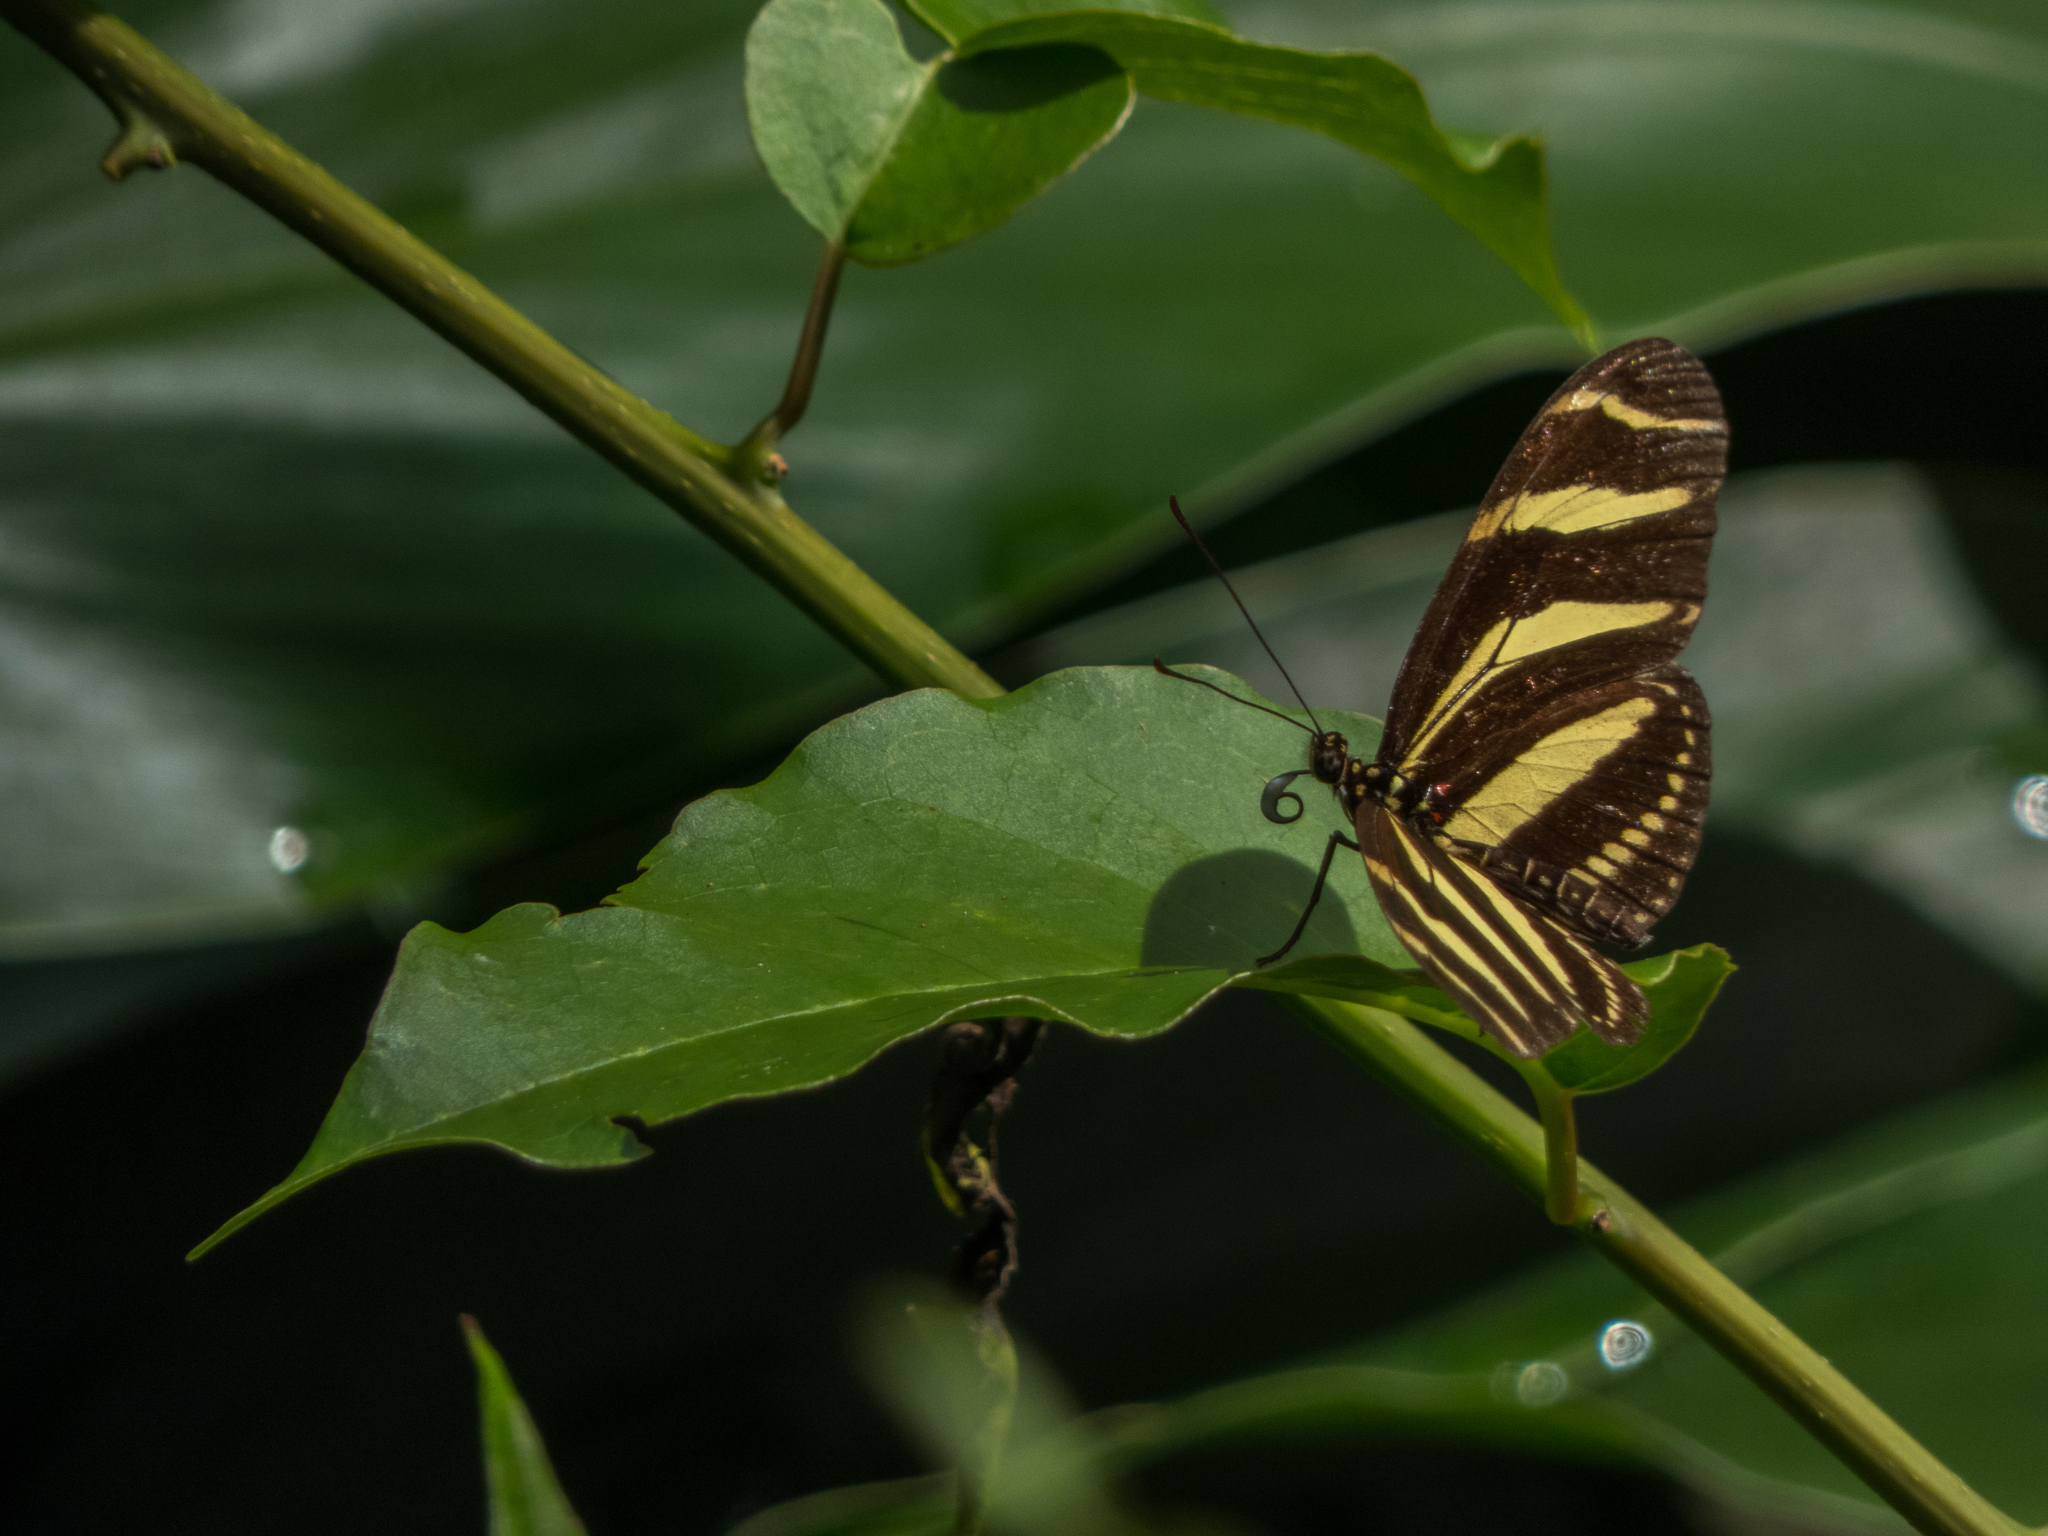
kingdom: Animalia
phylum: Arthropoda
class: Insecta
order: Lepidoptera
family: Nymphalidae
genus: Heliconius
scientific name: Heliconius charithonia
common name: Zebra long wing
